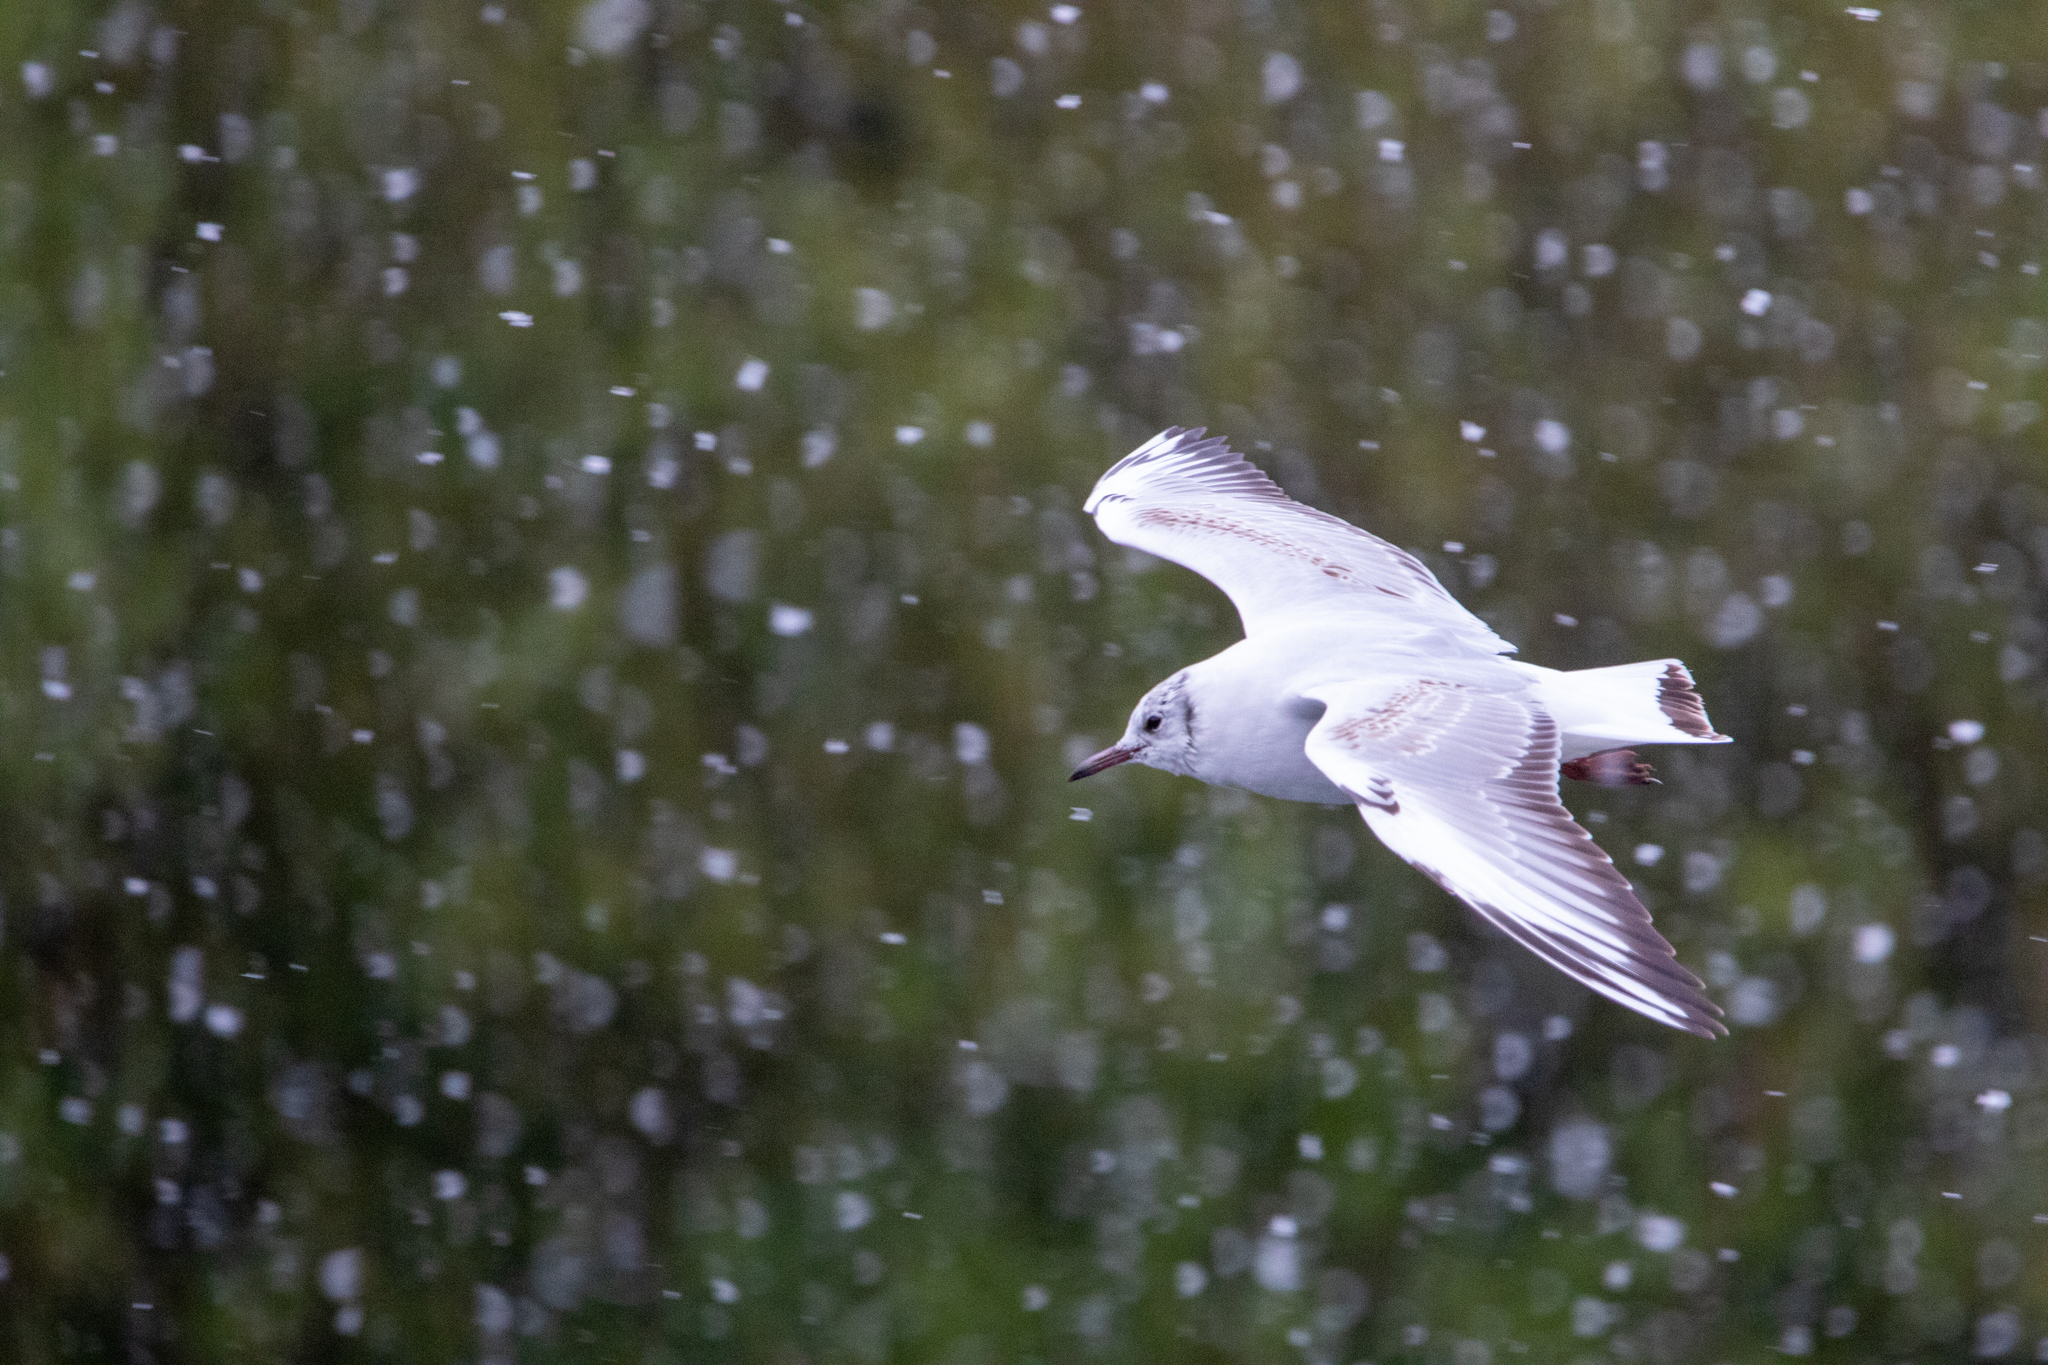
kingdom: Animalia
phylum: Chordata
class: Aves
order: Charadriiformes
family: Laridae
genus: Chroicocephalus
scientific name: Chroicocephalus ridibundus
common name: Black-headed gull
